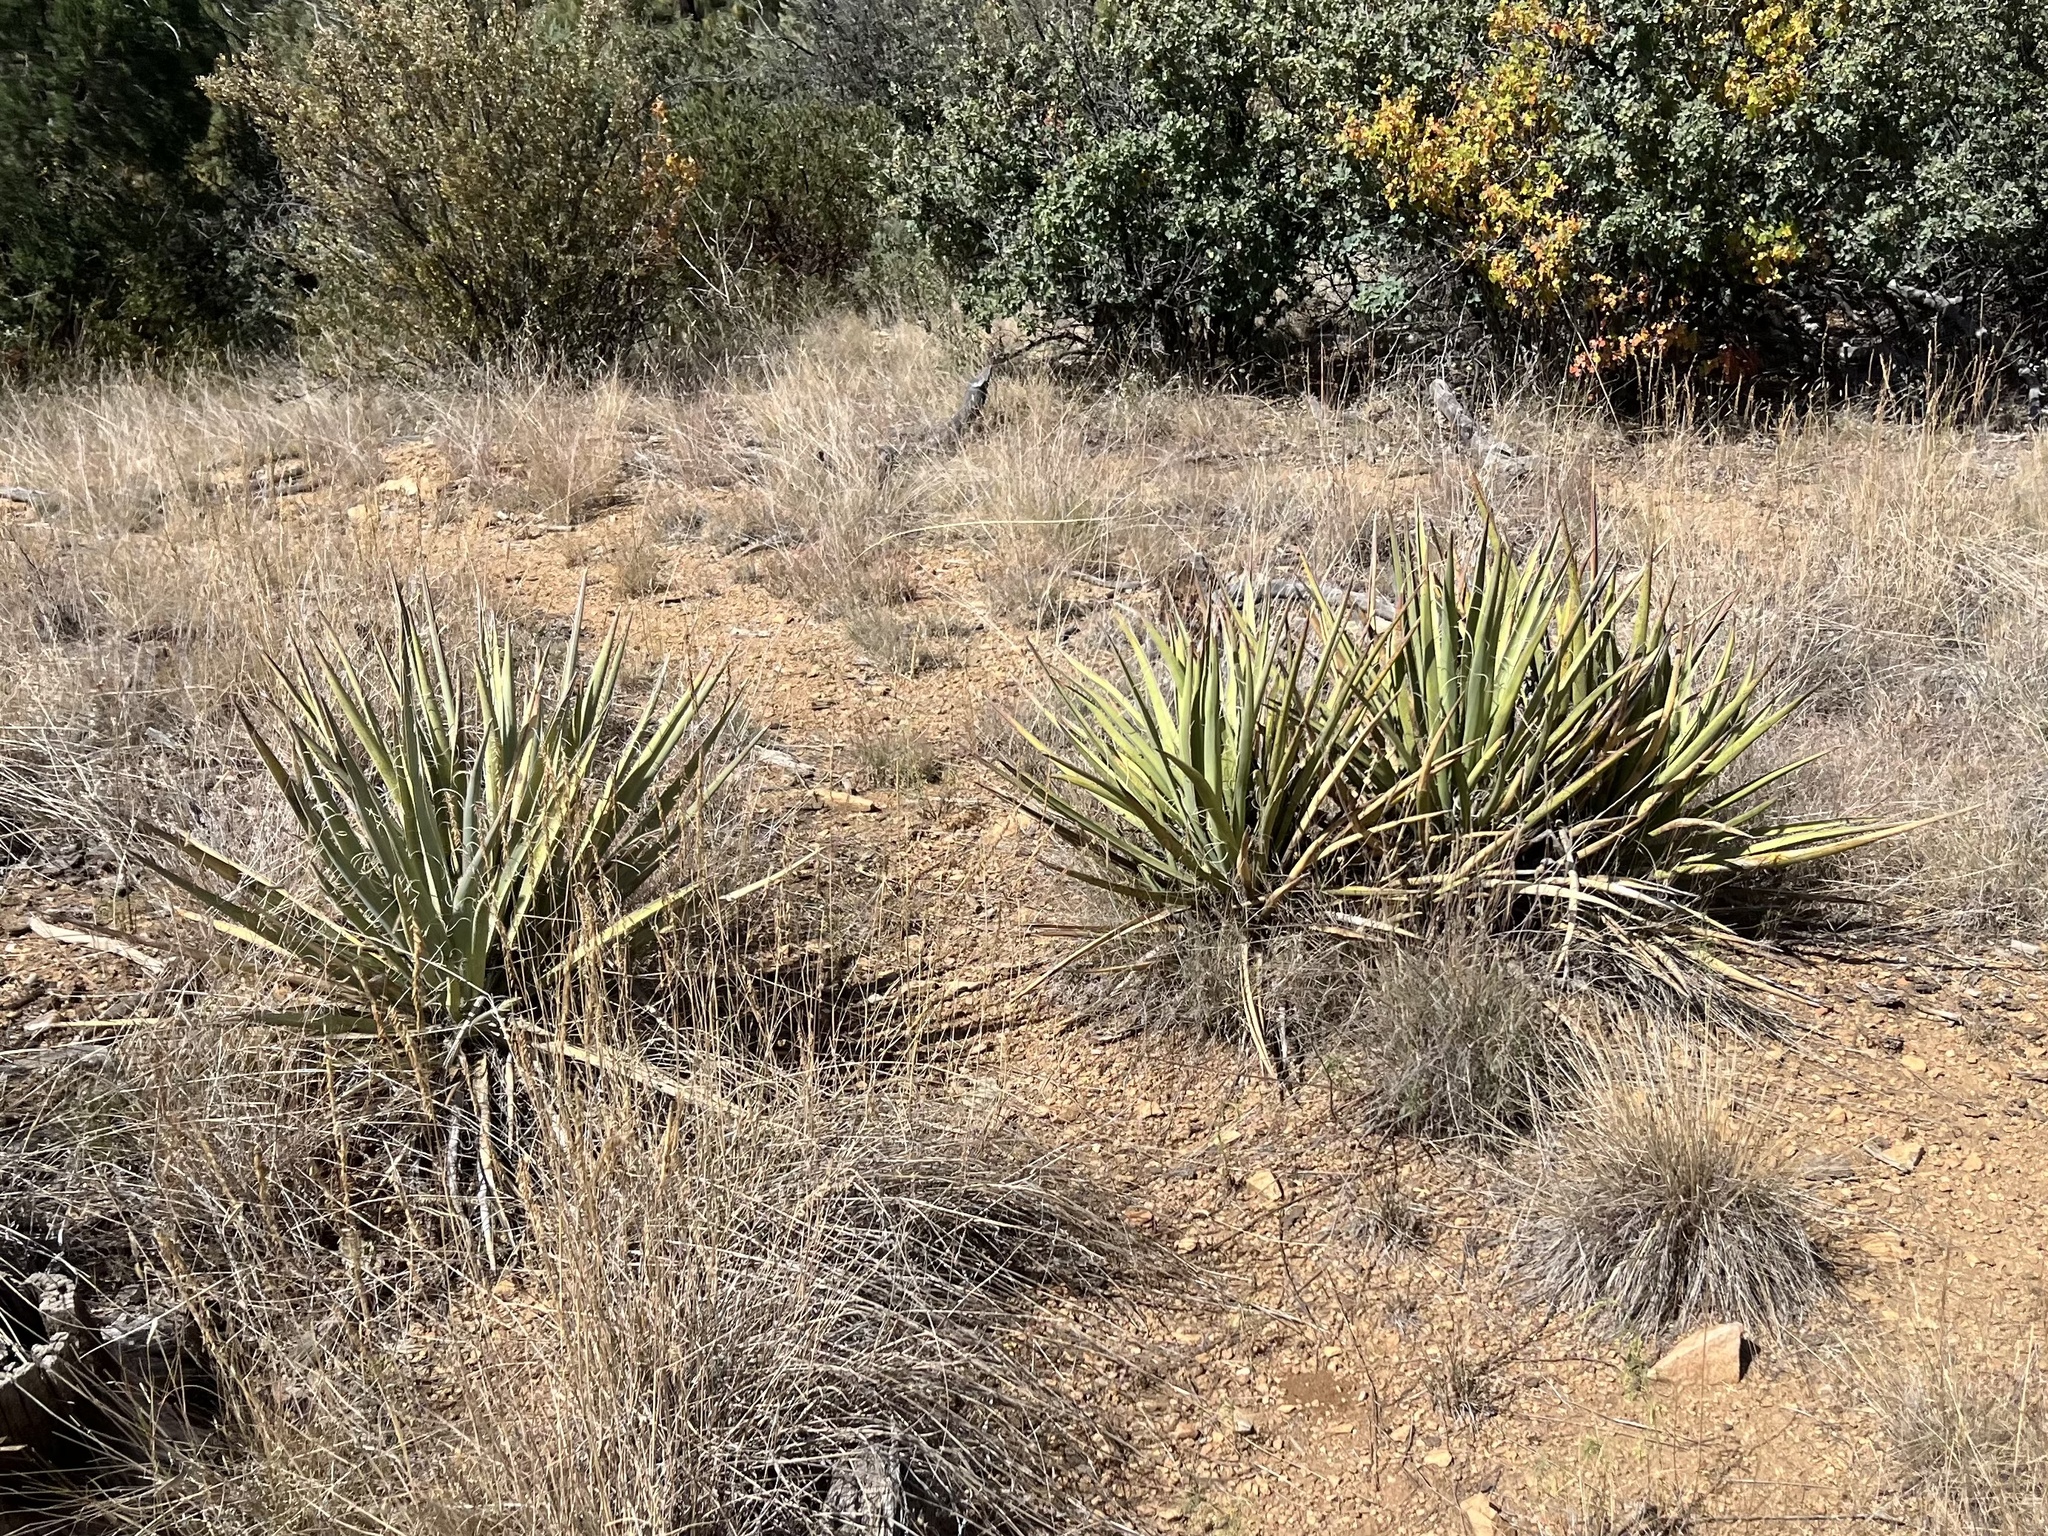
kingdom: Plantae
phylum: Tracheophyta
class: Liliopsida
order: Asparagales
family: Asparagaceae
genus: Yucca
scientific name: Yucca baccata
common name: Banana yucca
